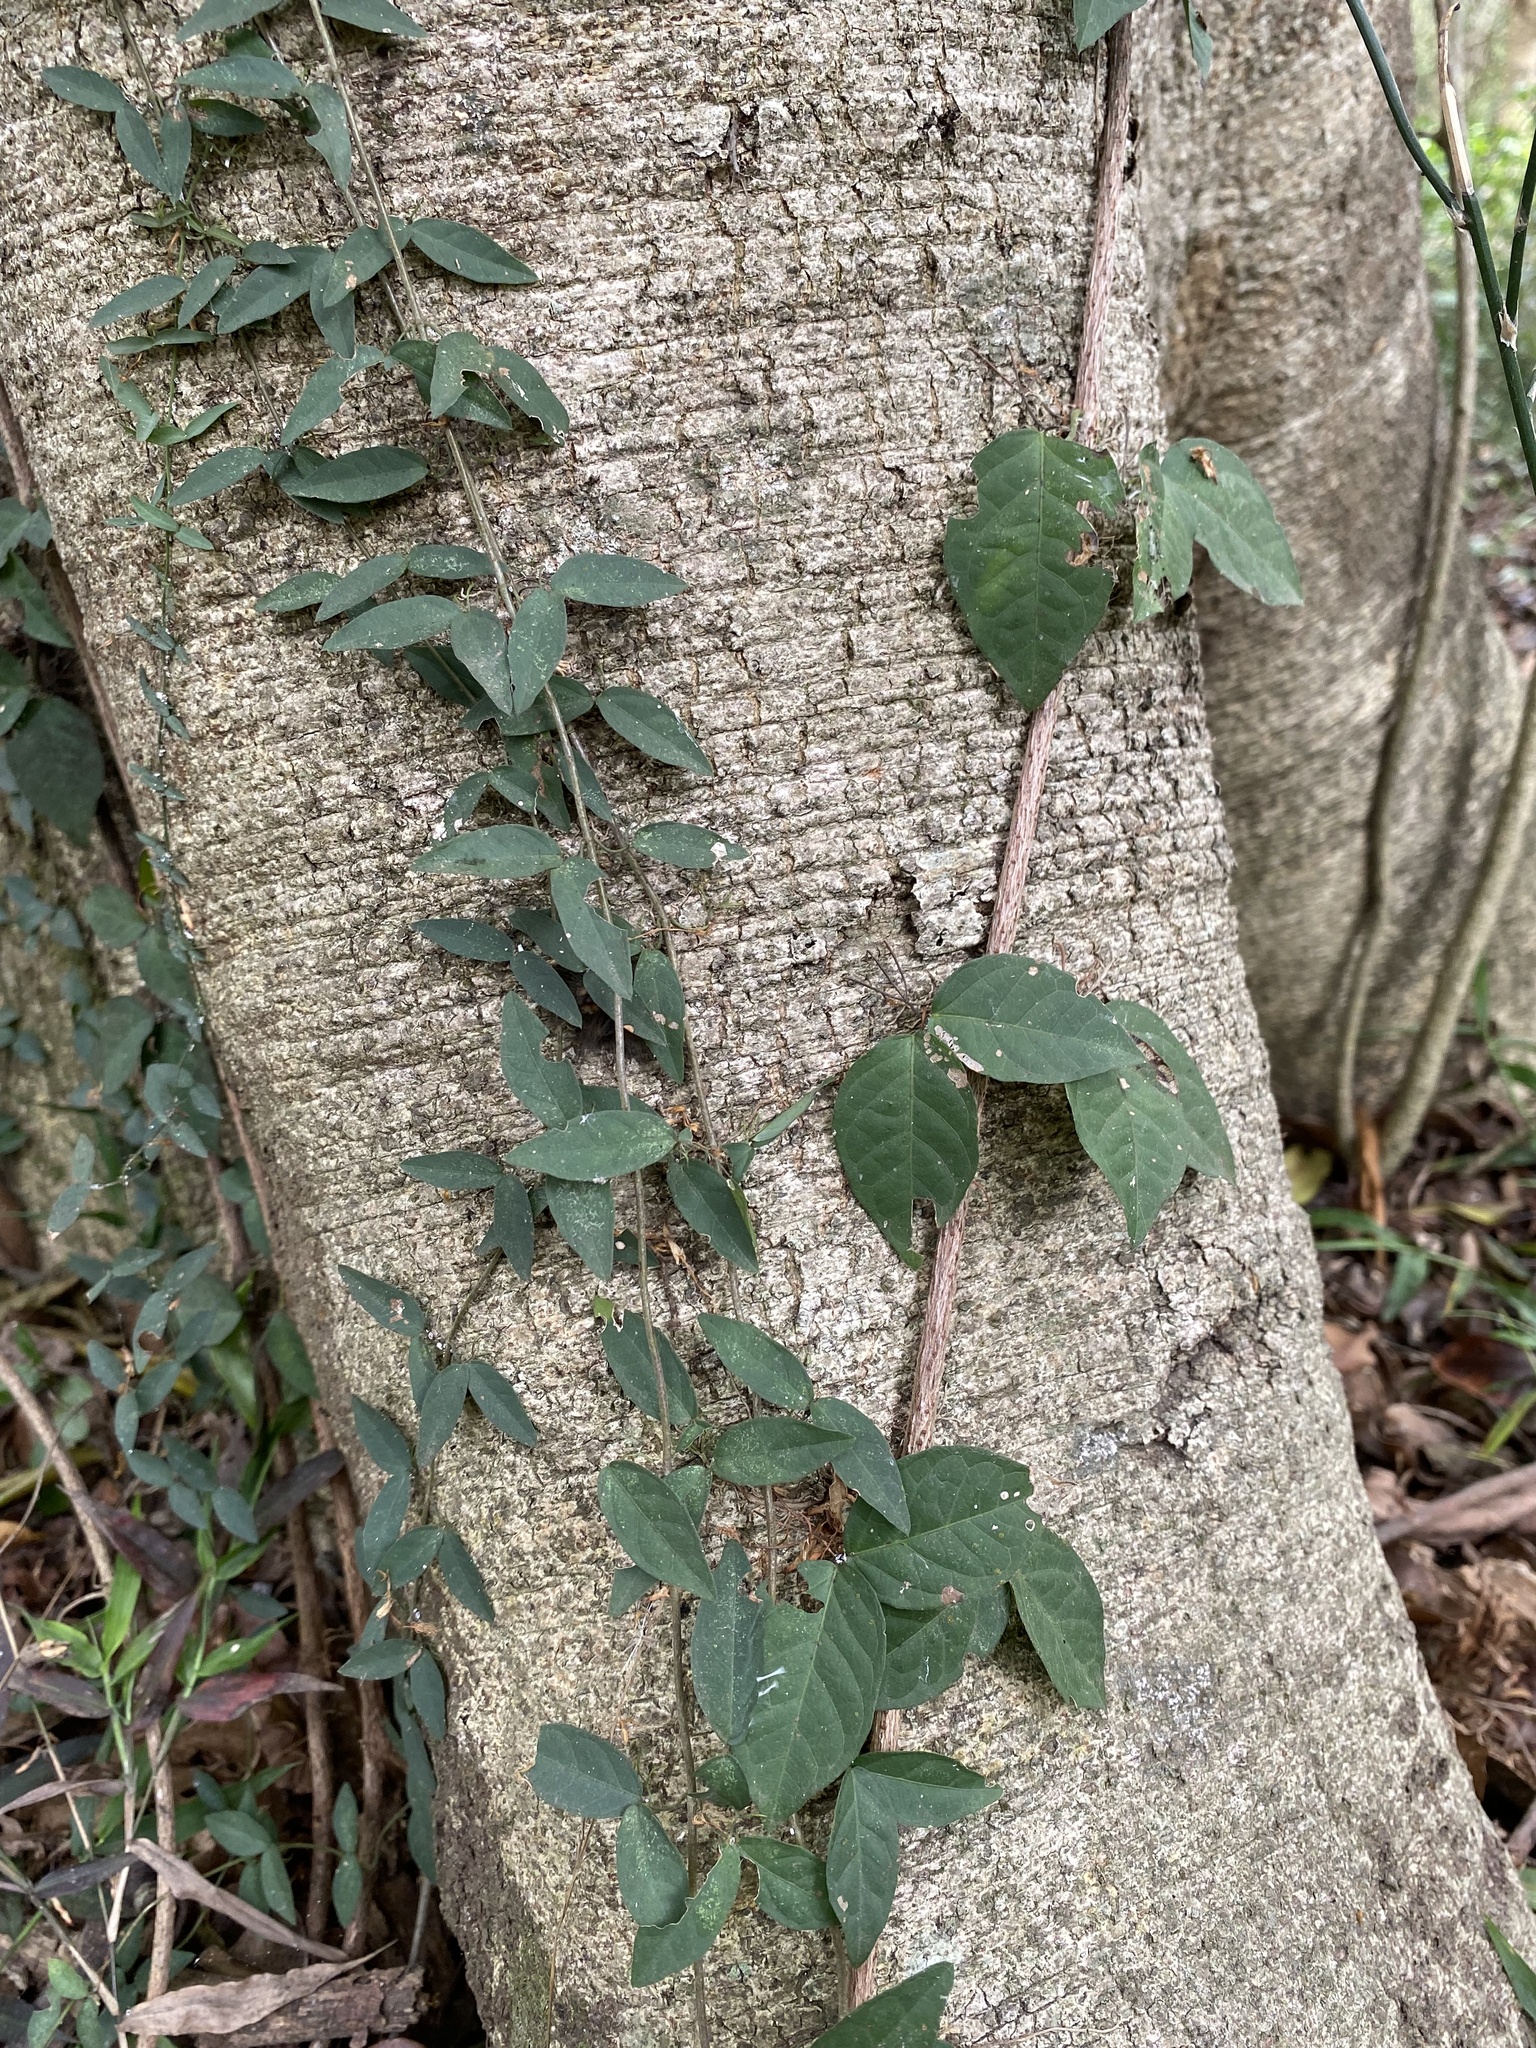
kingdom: Plantae
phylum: Tracheophyta
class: Magnoliopsida
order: Lamiales
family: Bignoniaceae
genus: Dolichandra
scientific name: Dolichandra unguis-cati
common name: Catclaw vine
